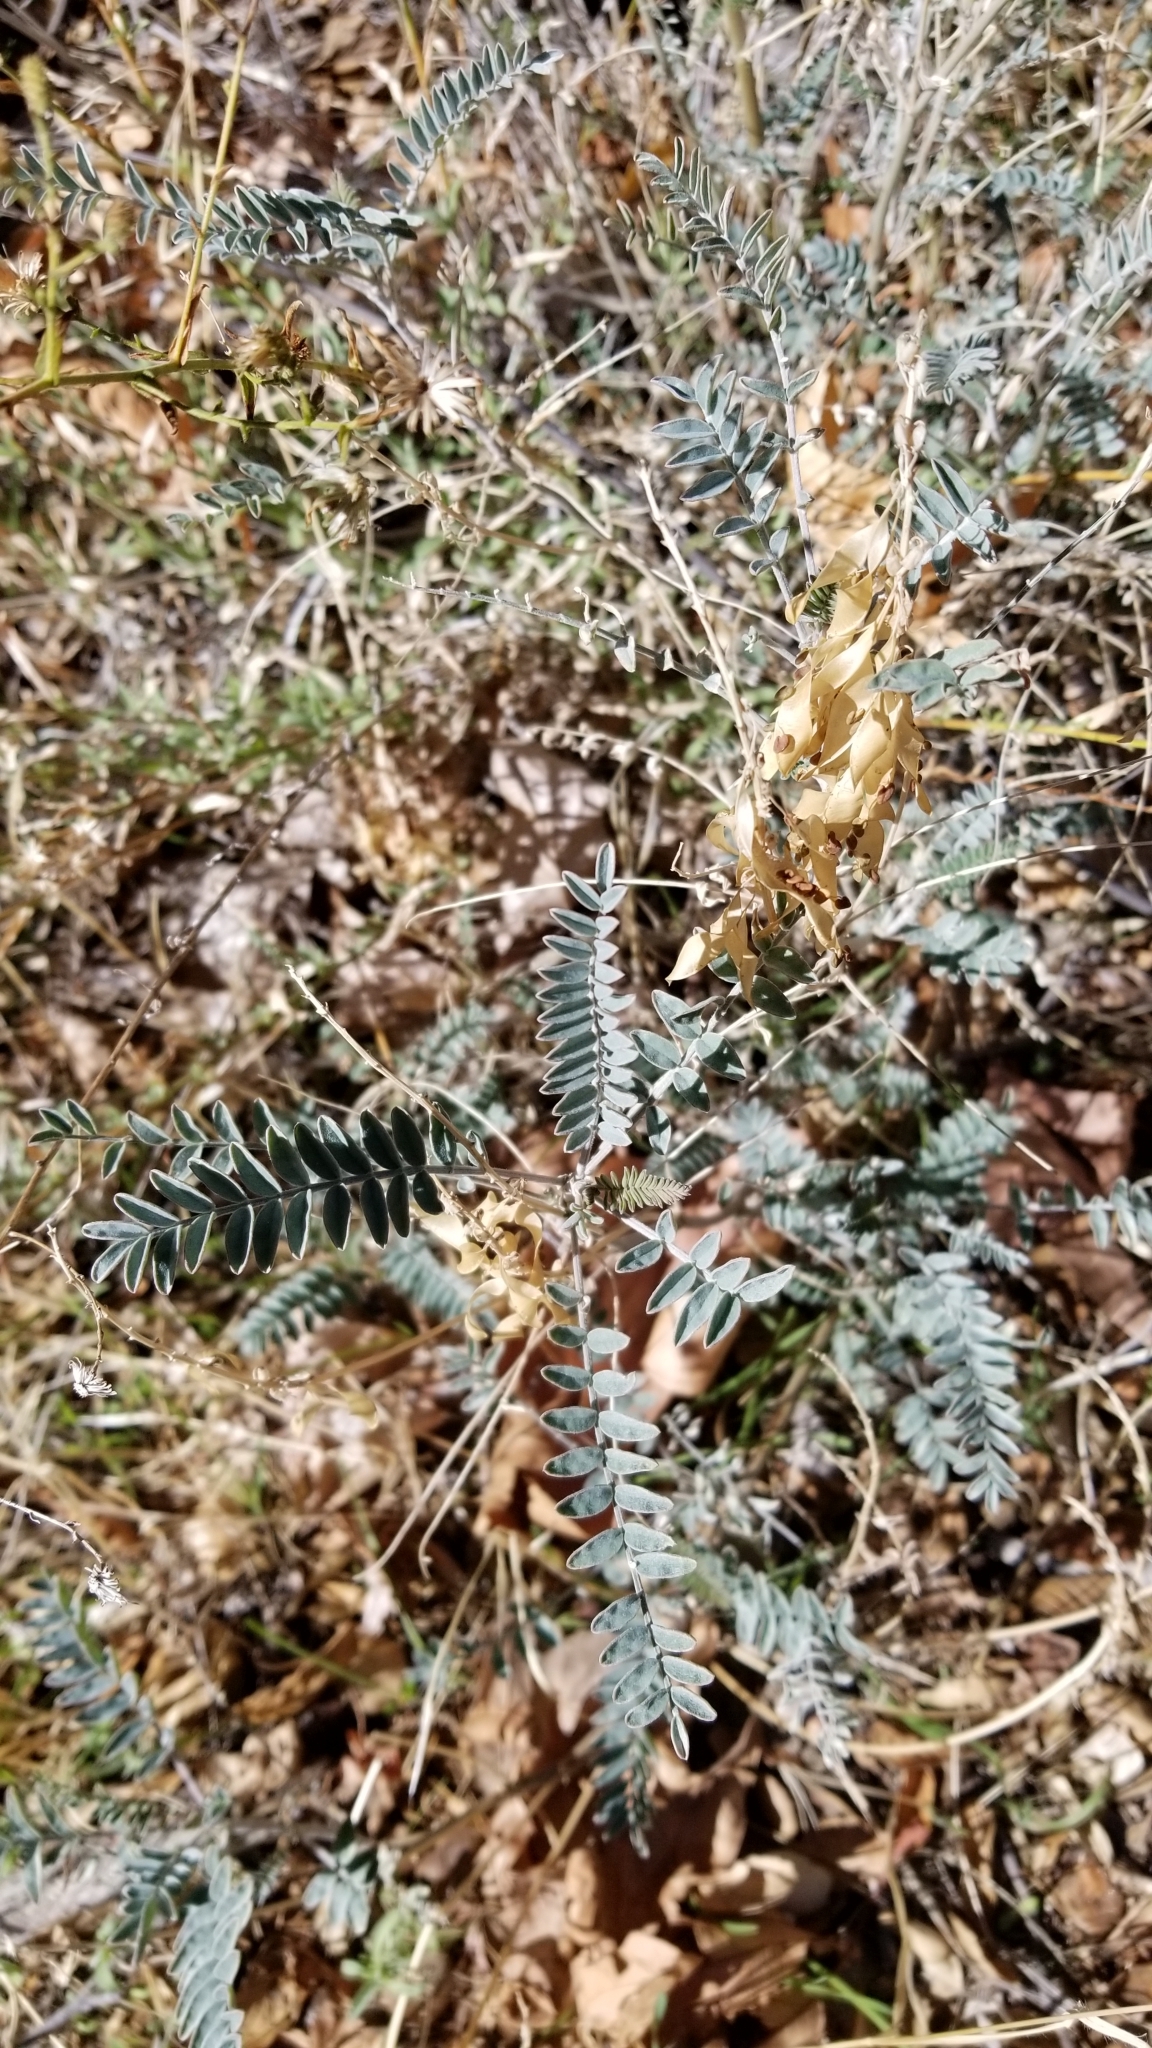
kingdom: Plantae
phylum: Tracheophyta
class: Magnoliopsida
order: Fabales
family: Fabaceae
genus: Astragalus
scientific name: Astragalus trichopodus
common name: Santa barbara milk-vetch
